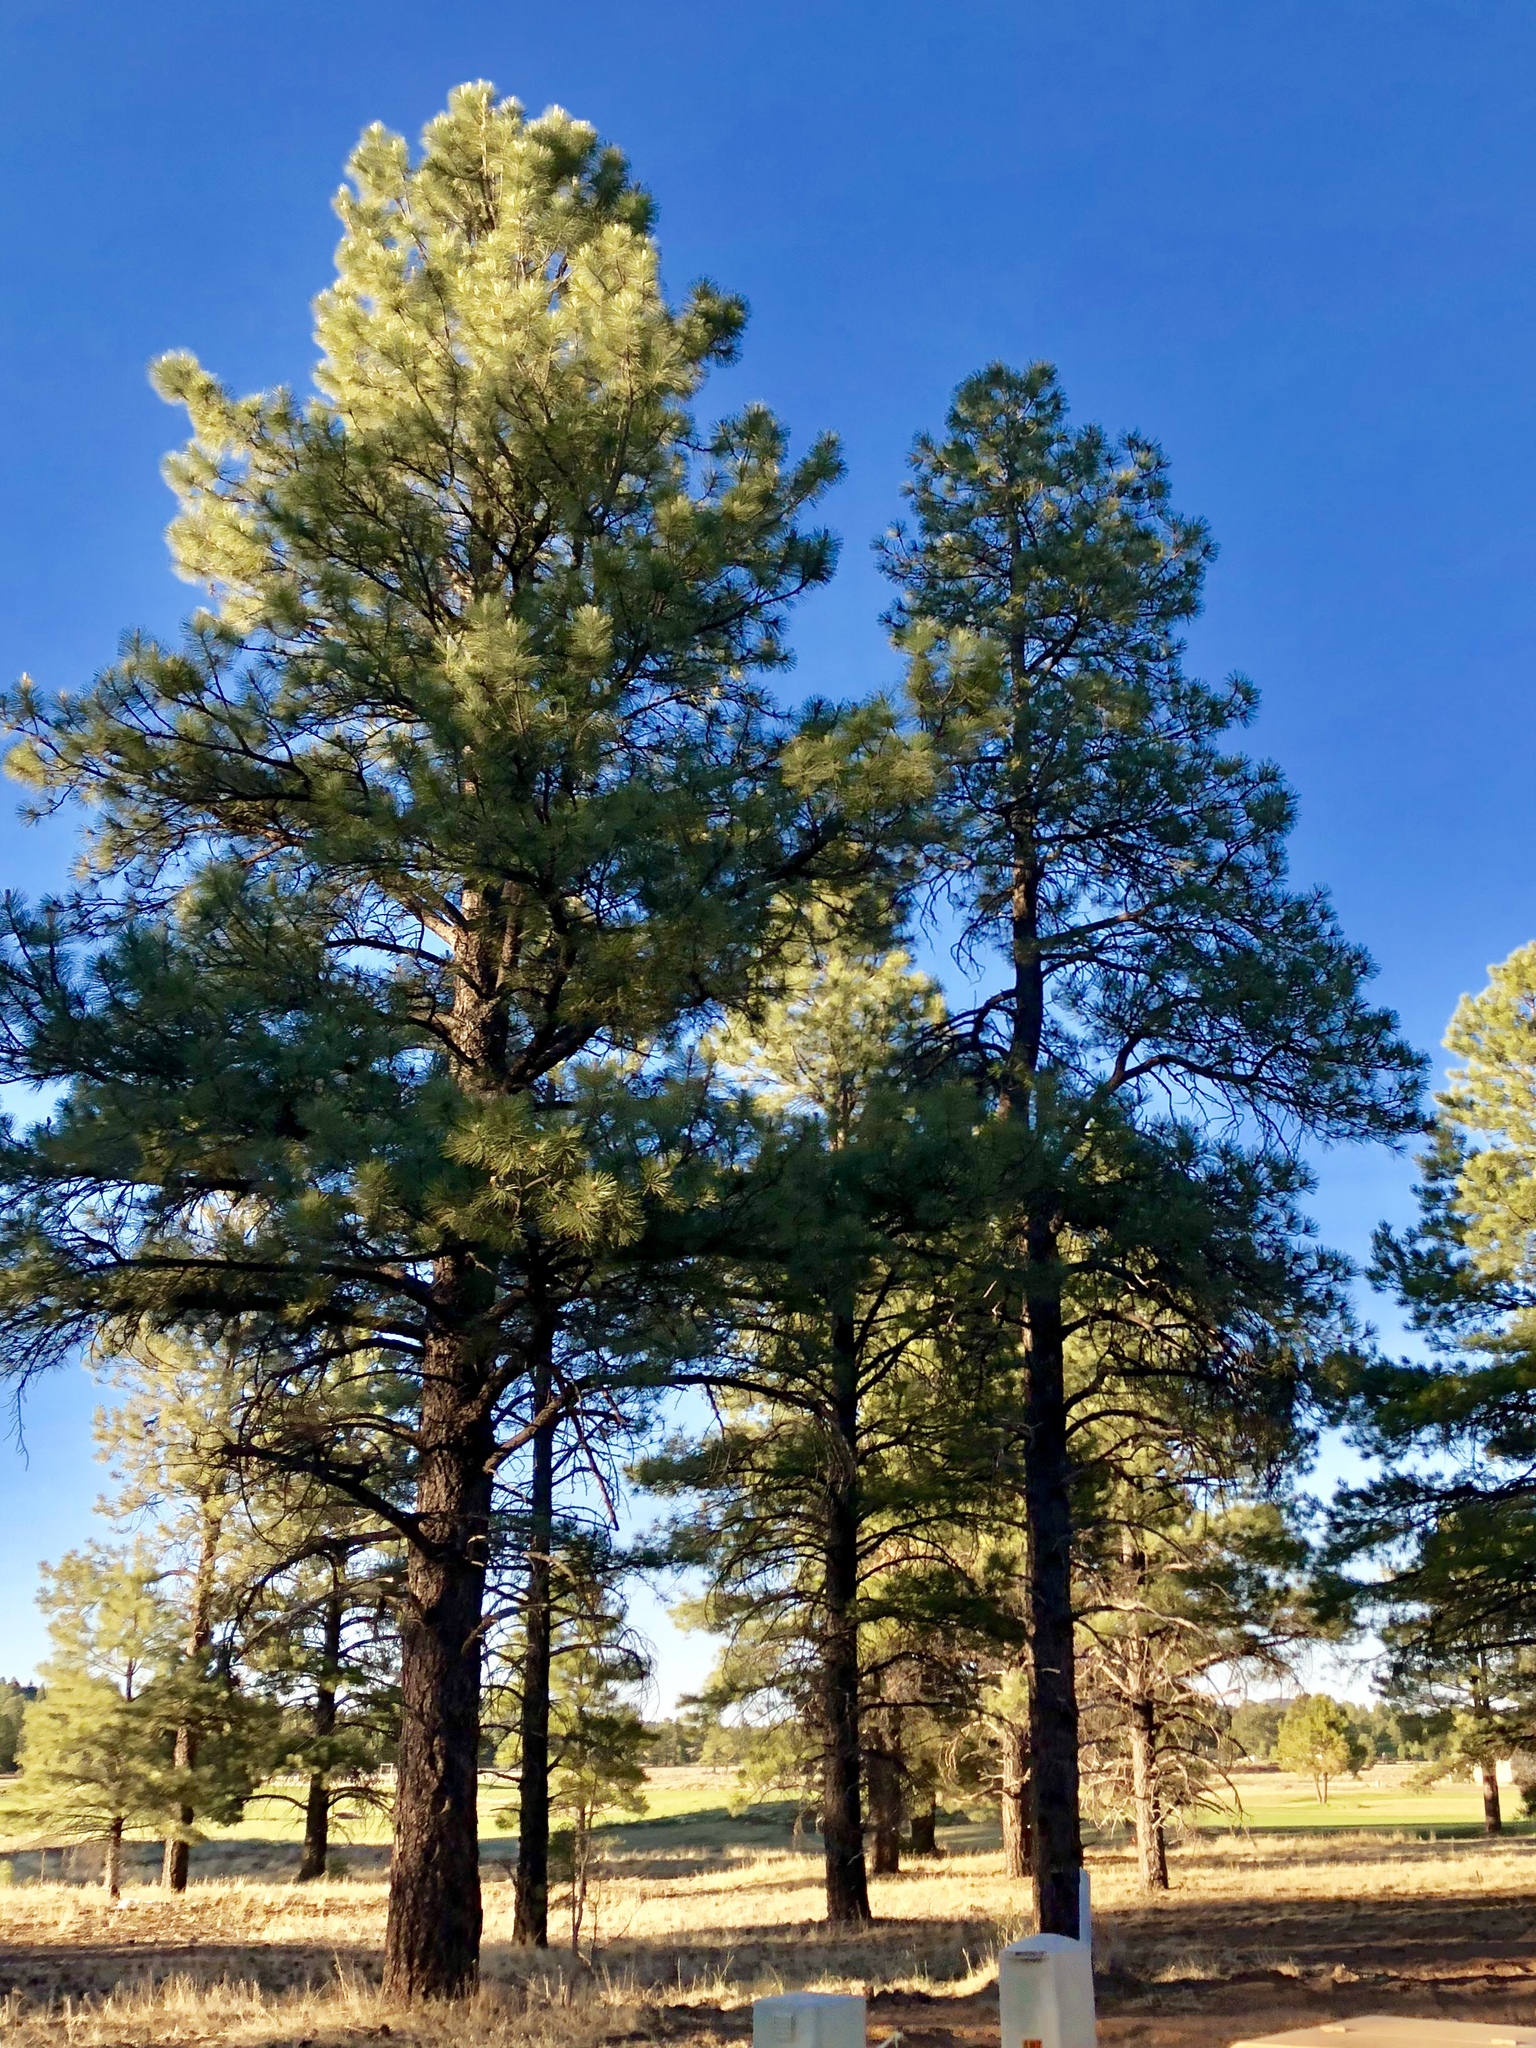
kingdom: Plantae
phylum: Tracheophyta
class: Pinopsida
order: Pinales
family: Pinaceae
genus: Pinus
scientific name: Pinus ponderosa
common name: Western yellow-pine
